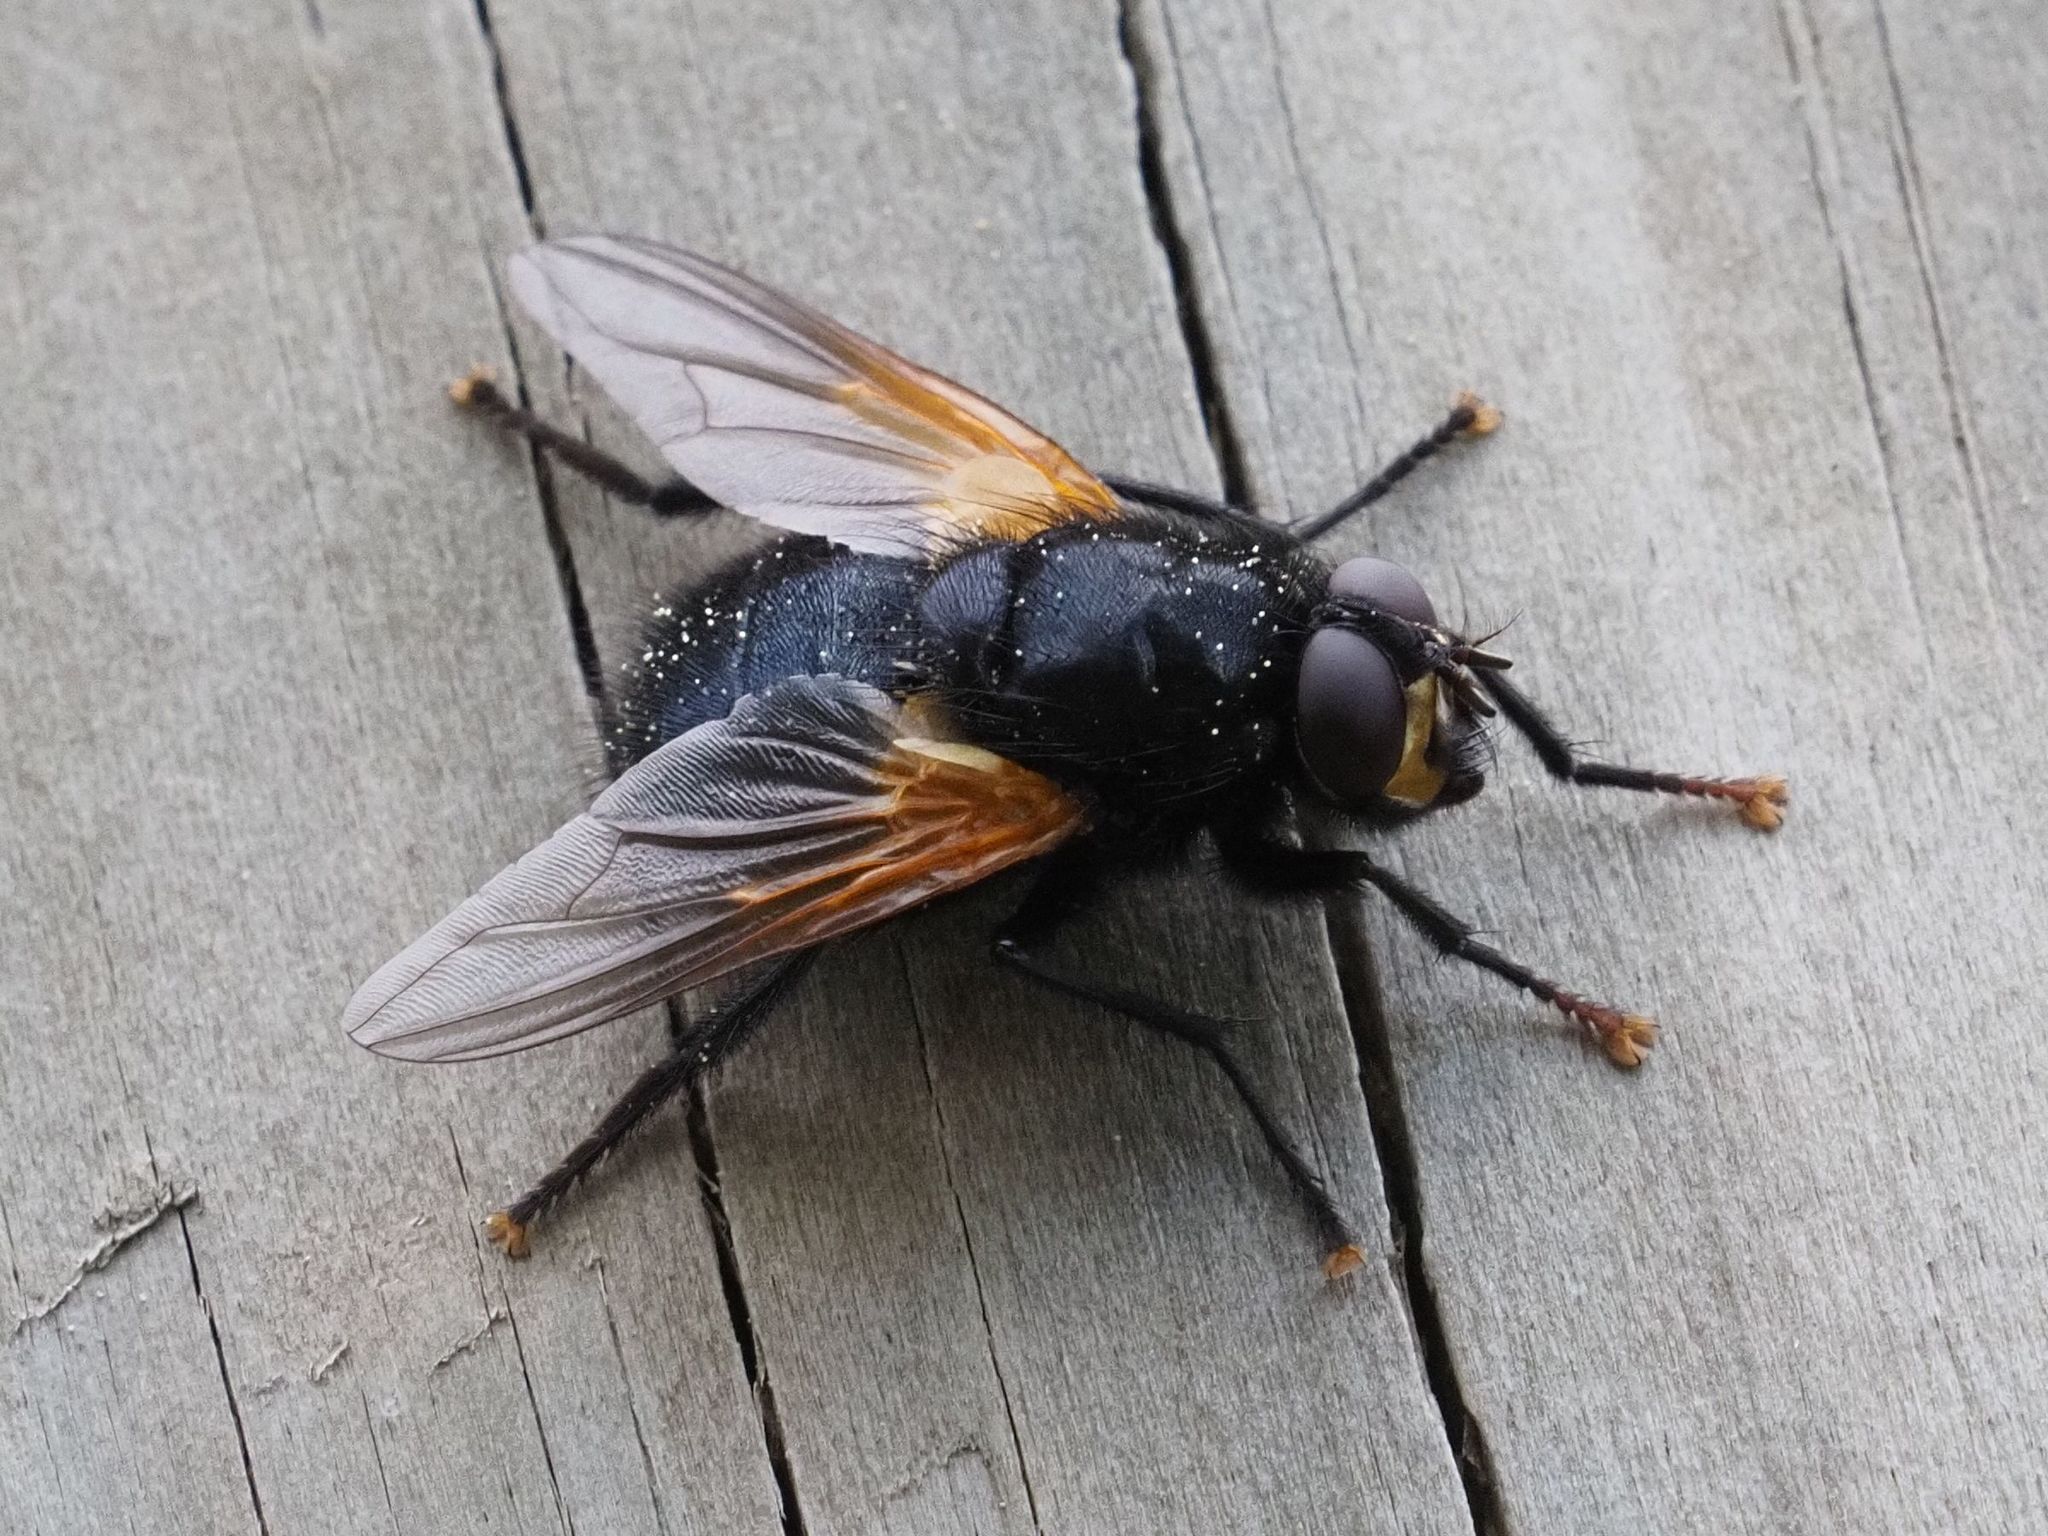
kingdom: Animalia
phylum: Arthropoda
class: Insecta
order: Diptera
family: Muscidae
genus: Mesembrina
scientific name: Mesembrina meridiana
